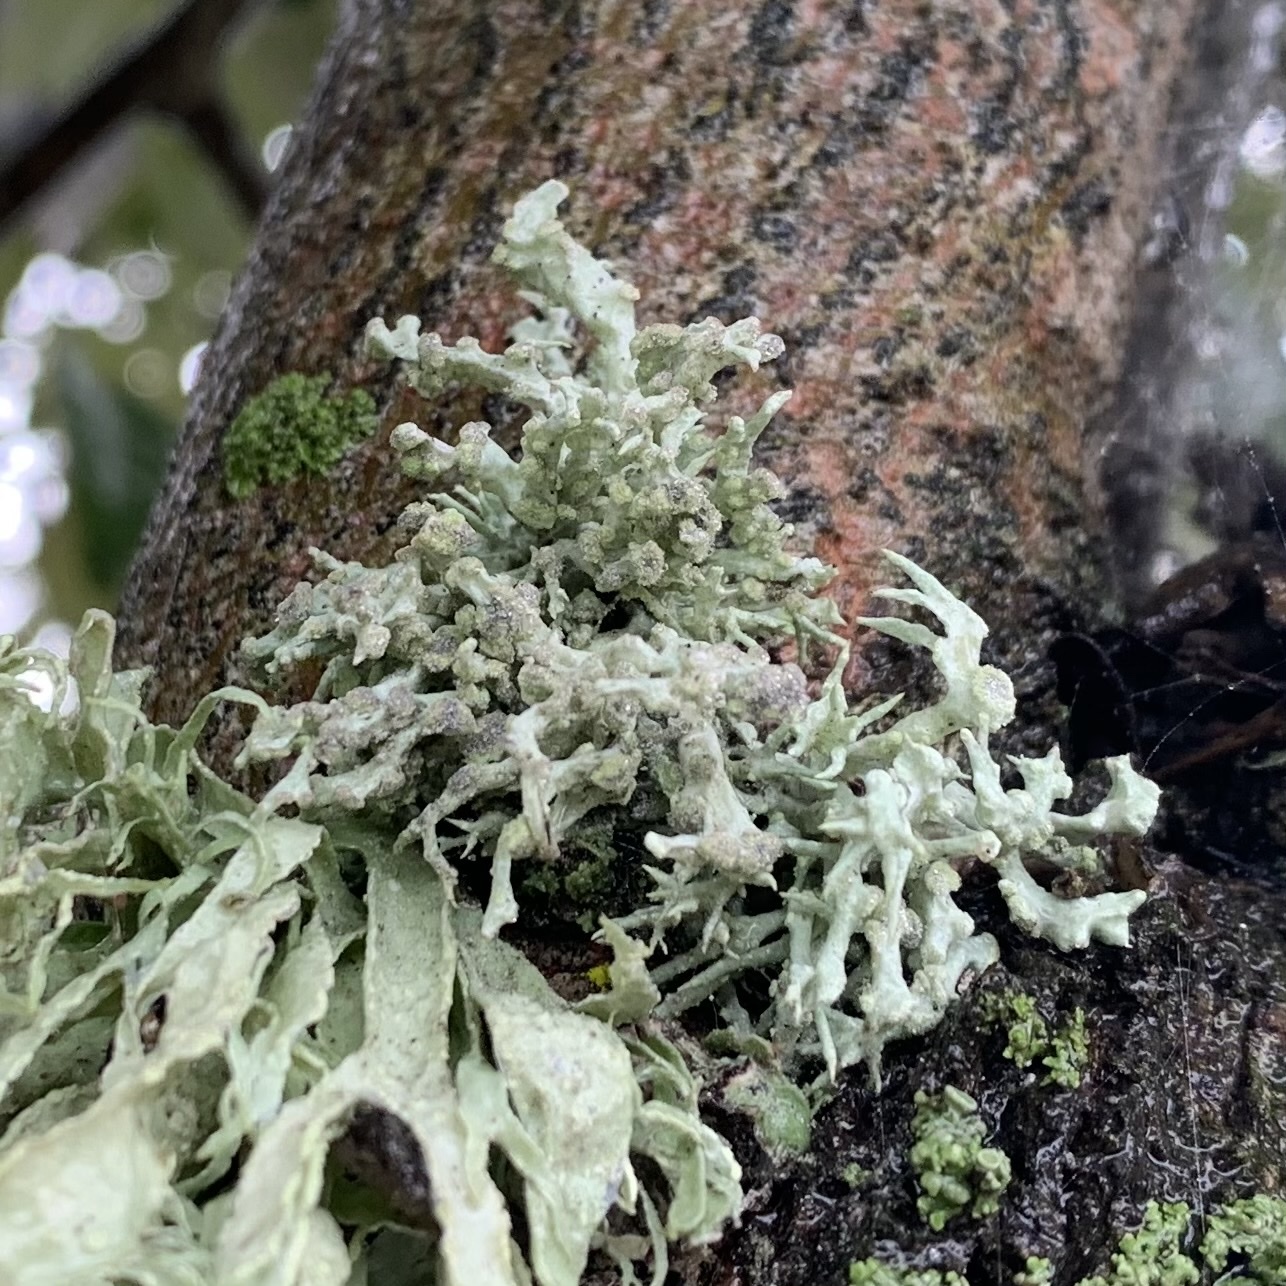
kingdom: Fungi
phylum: Ascomycota
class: Lecanoromycetes
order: Lecanorales
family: Ramalinaceae
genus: Niebla
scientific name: Niebla cephalota
